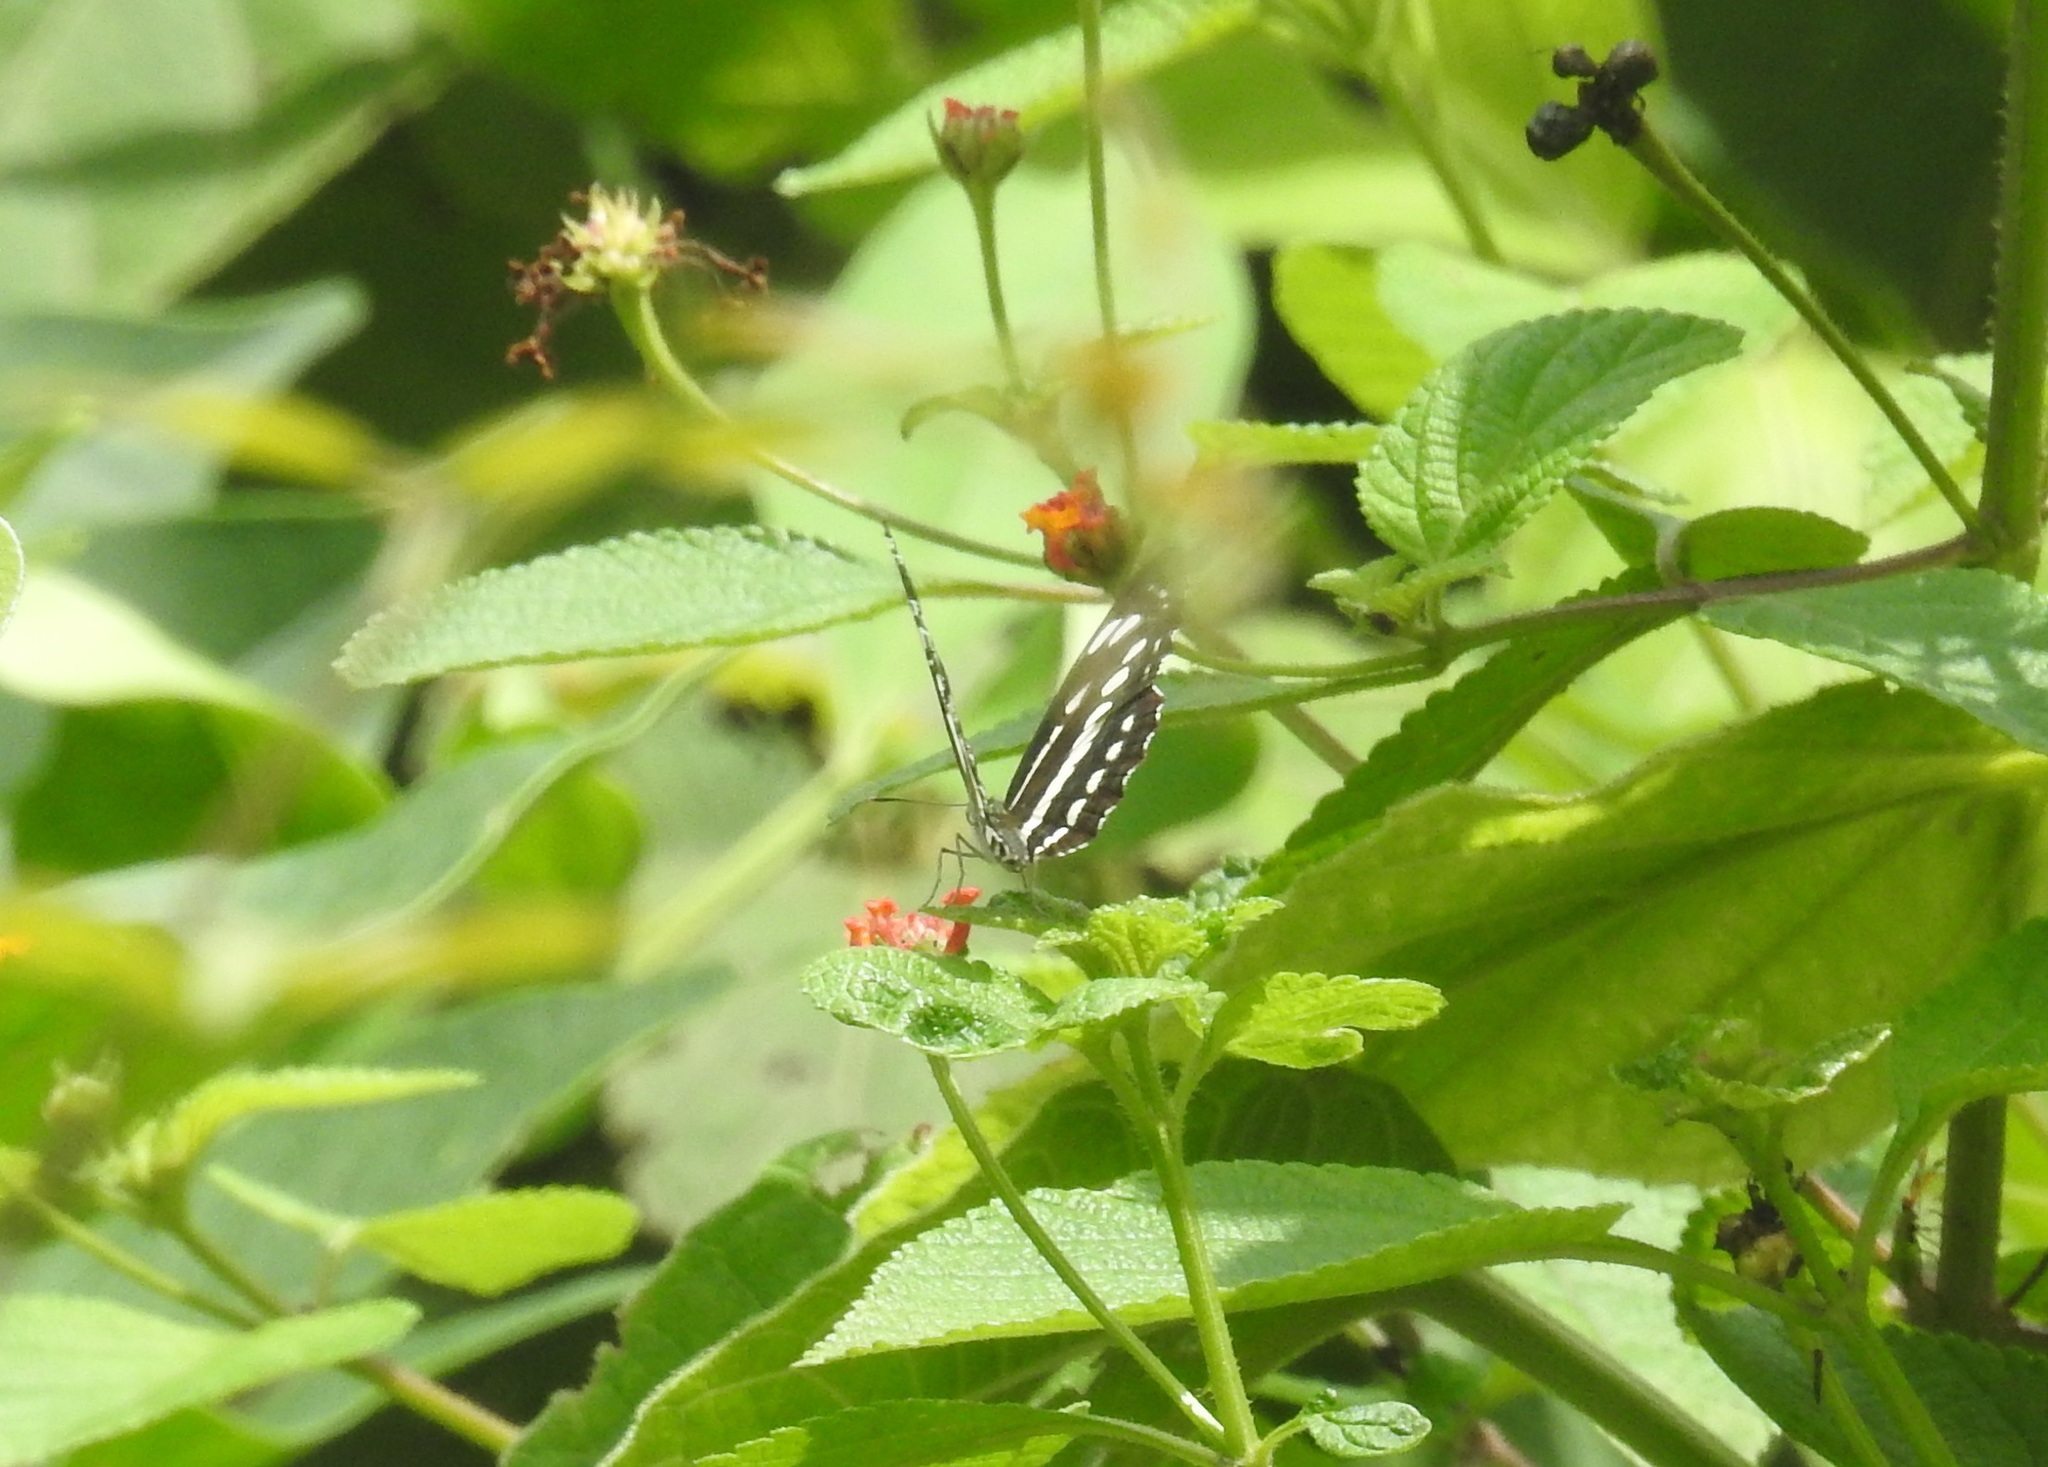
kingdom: Animalia
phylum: Arthropoda
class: Insecta
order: Lepidoptera
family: Nymphalidae
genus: Neptis
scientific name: Neptis hylas
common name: Common sailer
